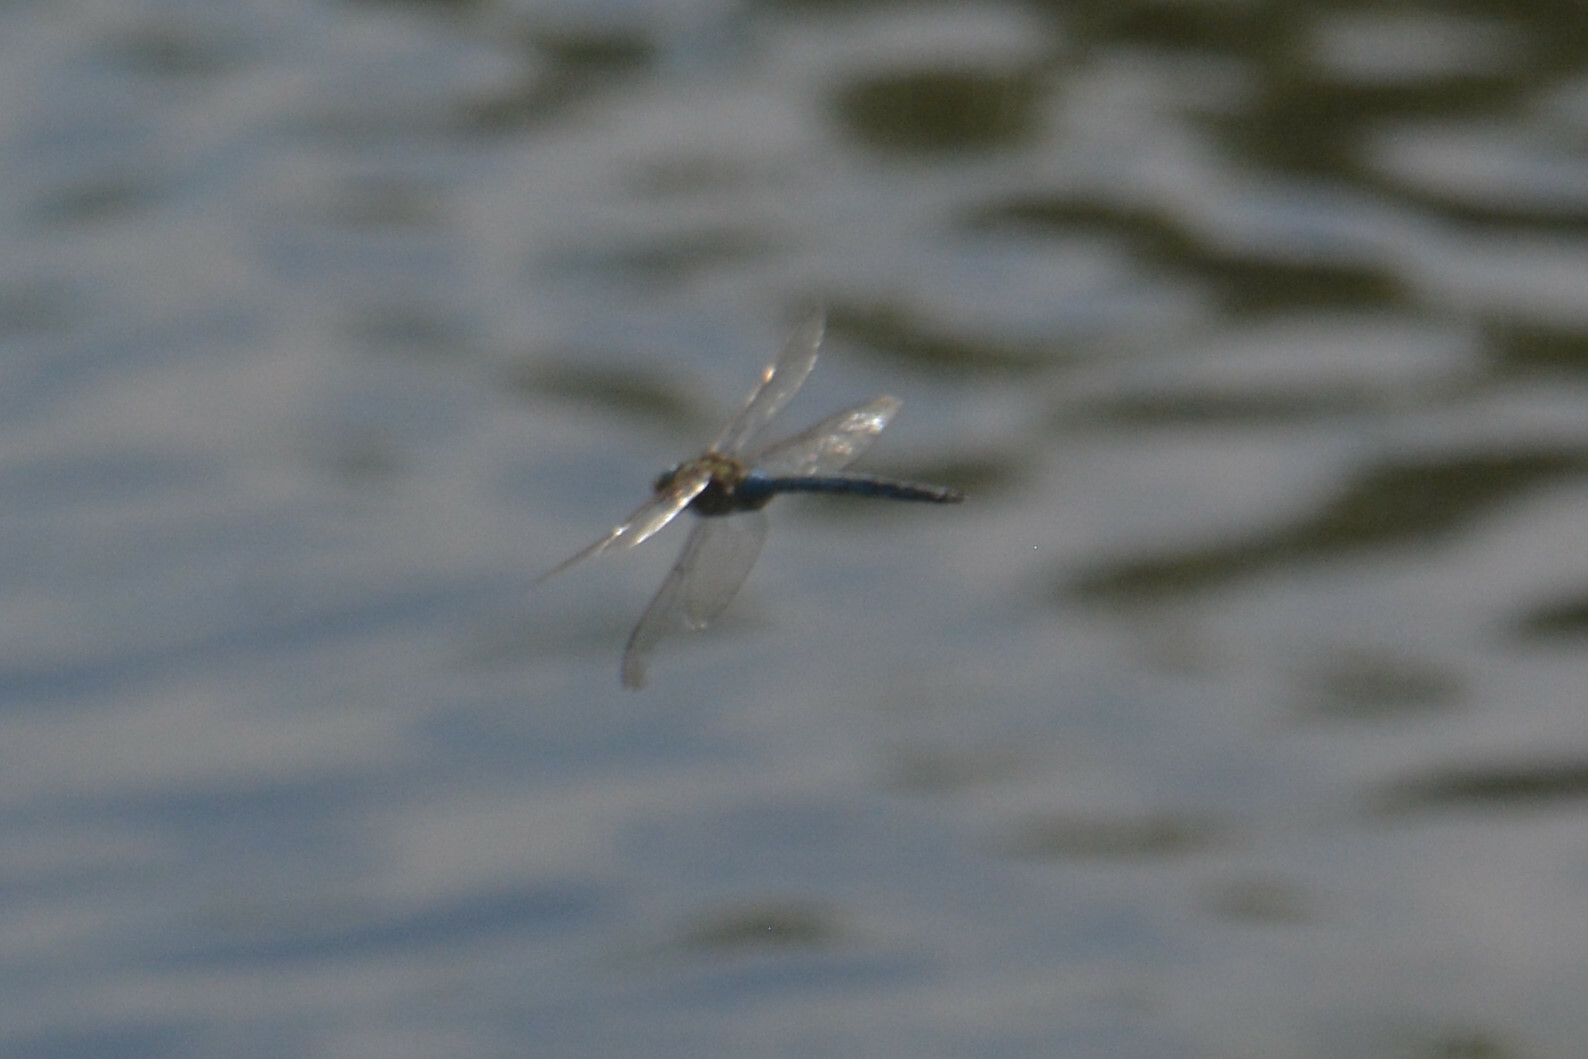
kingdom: Animalia
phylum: Arthropoda
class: Insecta
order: Odonata
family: Aeshnidae
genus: Anax
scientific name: Anax imperator
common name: Emperor dragonfly
